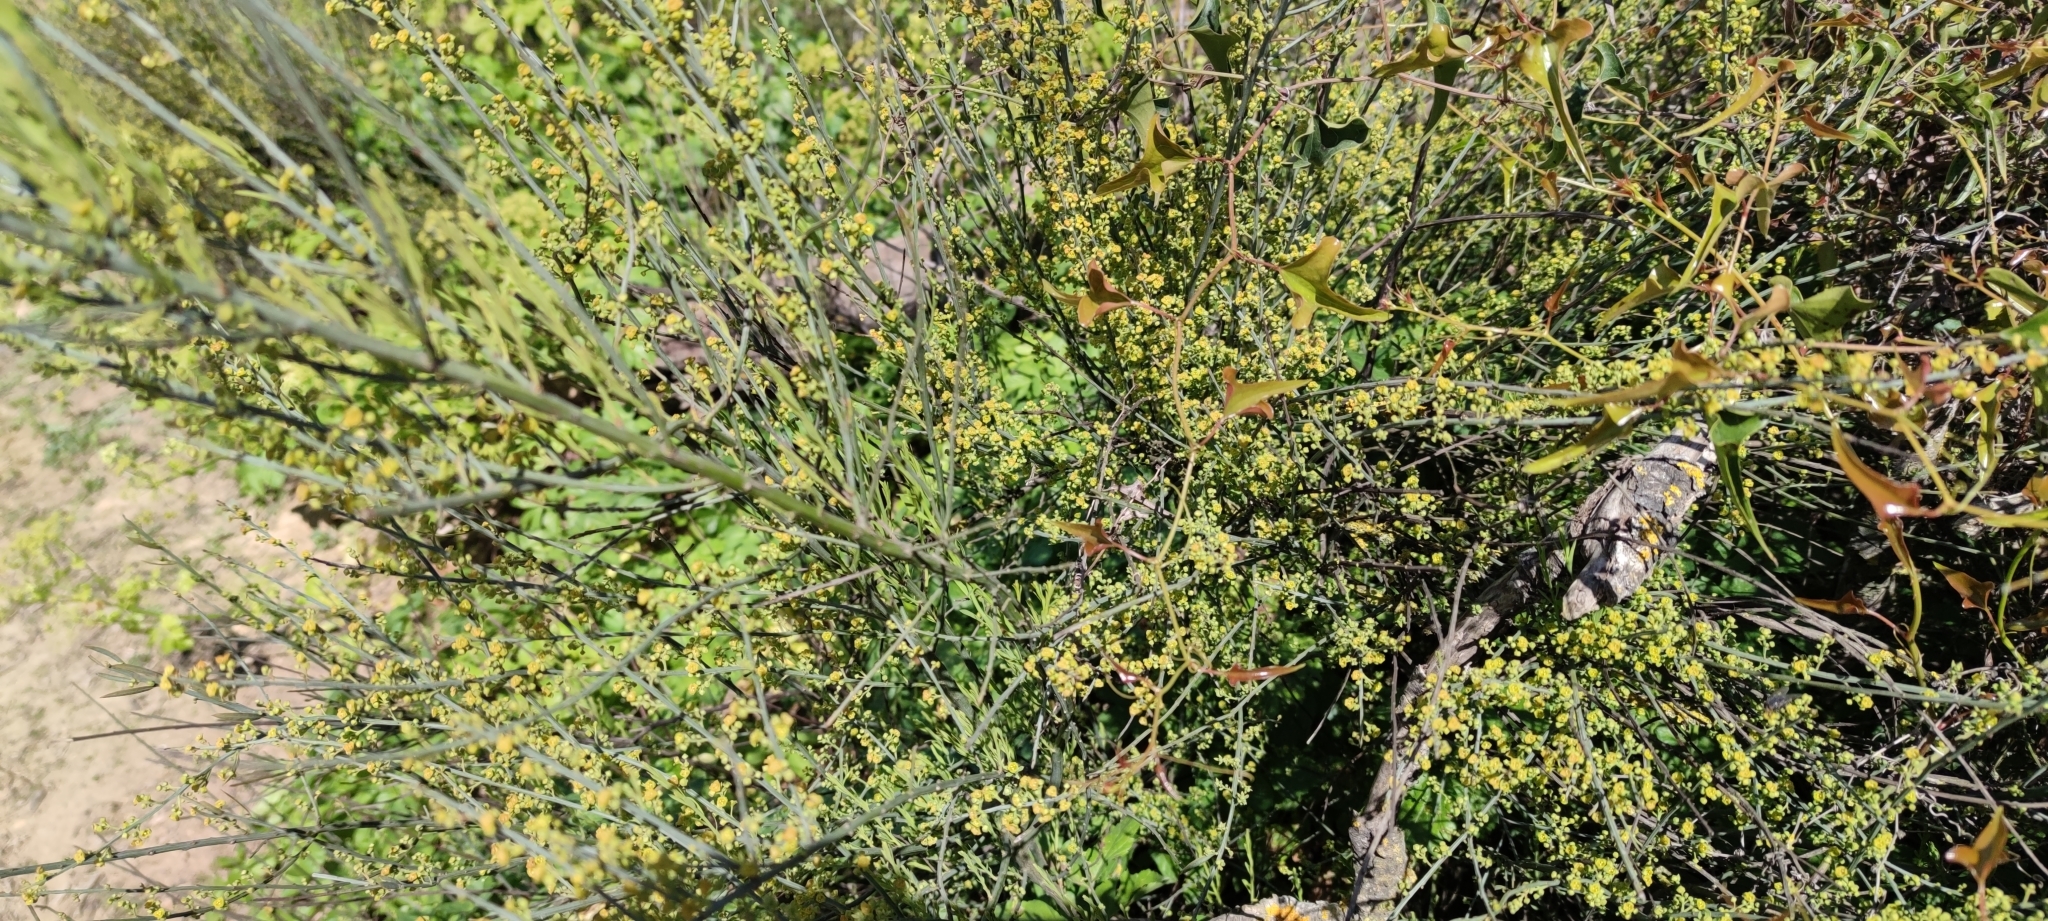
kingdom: Plantae
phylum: Tracheophyta
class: Magnoliopsida
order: Santalales
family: Santalaceae
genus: Osyris
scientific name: Osyris alba
